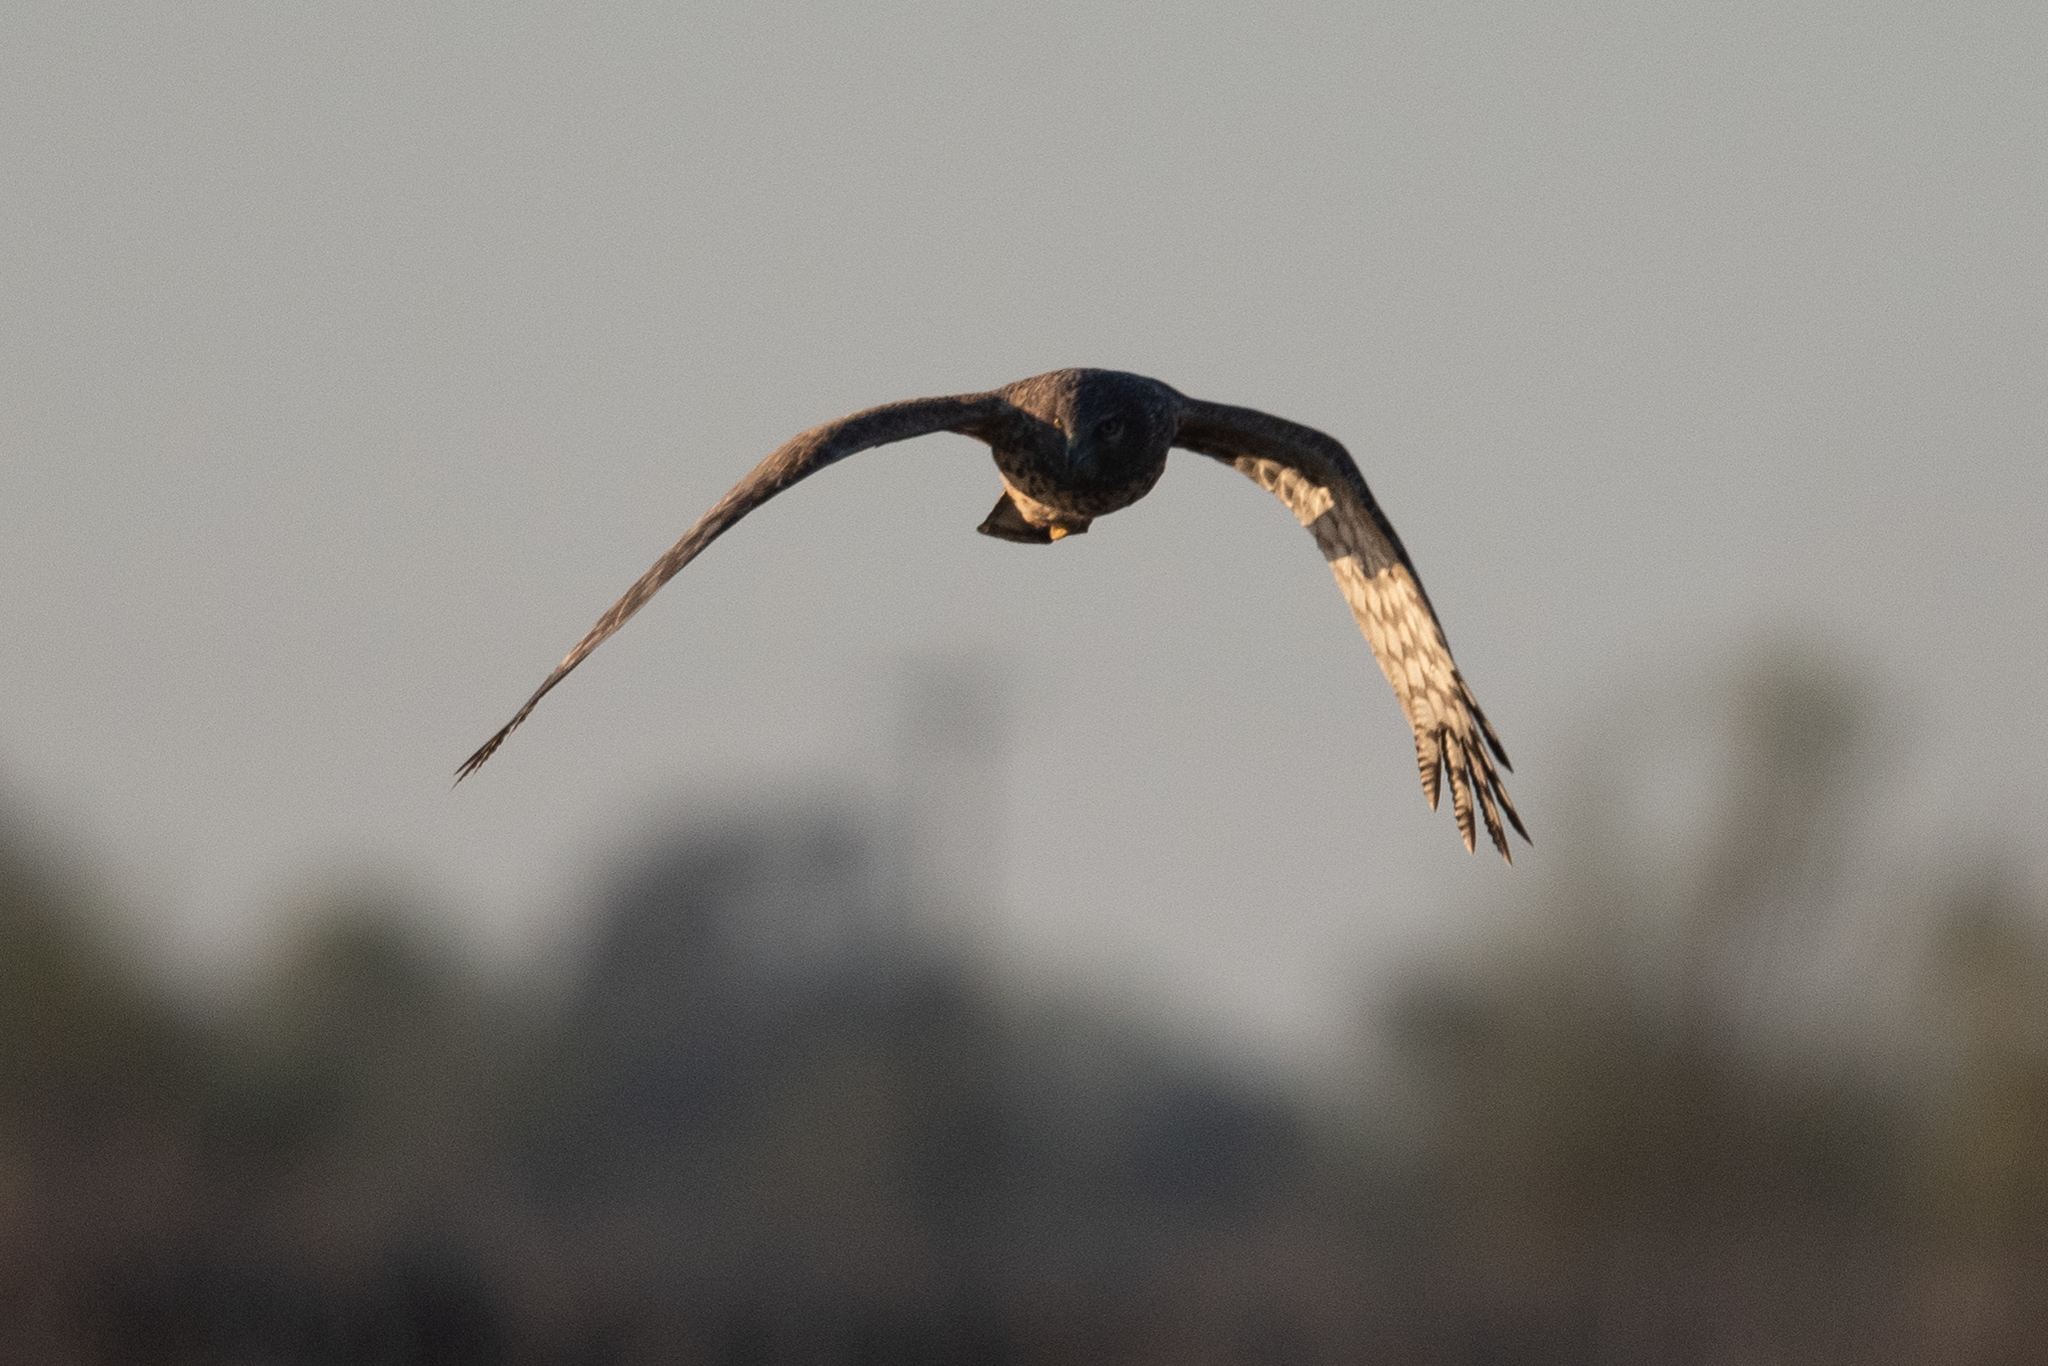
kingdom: Animalia
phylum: Chordata
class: Aves
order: Accipitriformes
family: Accipitridae
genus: Circus
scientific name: Circus cyaneus
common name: Hen harrier
